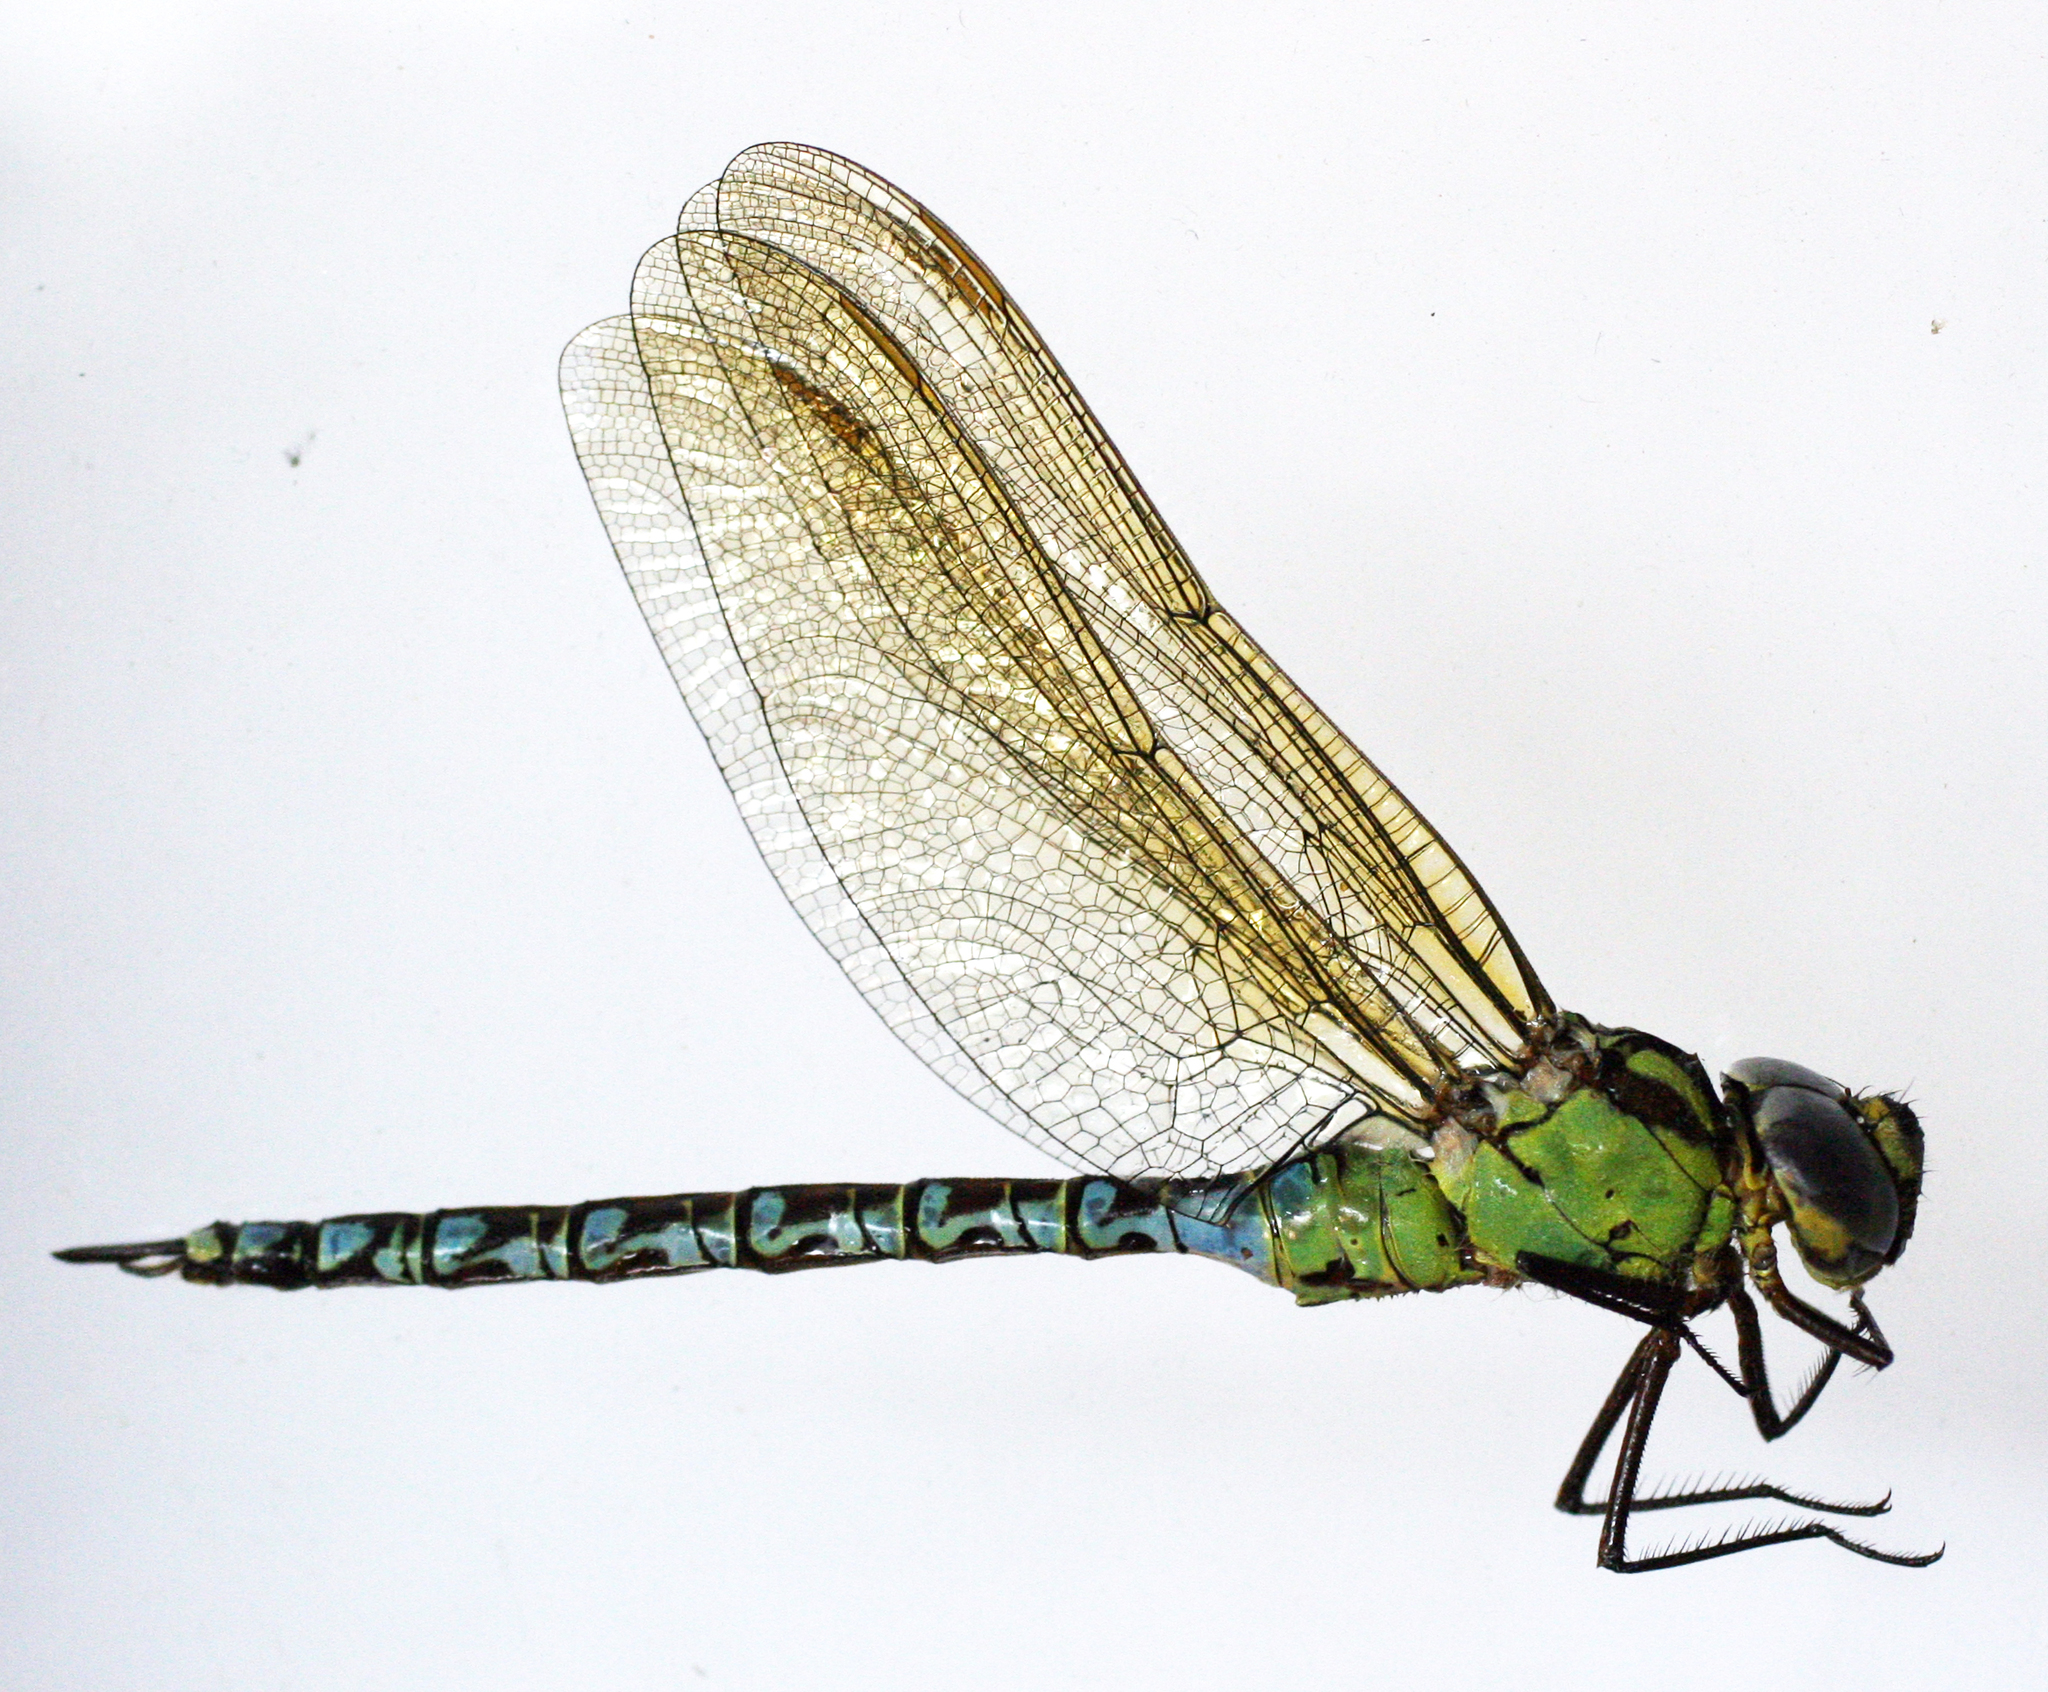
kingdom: Animalia
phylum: Arthropoda
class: Insecta
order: Odonata
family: Aeshnidae
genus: Aeshna
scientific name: Aeshna viridis
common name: Green hawker
